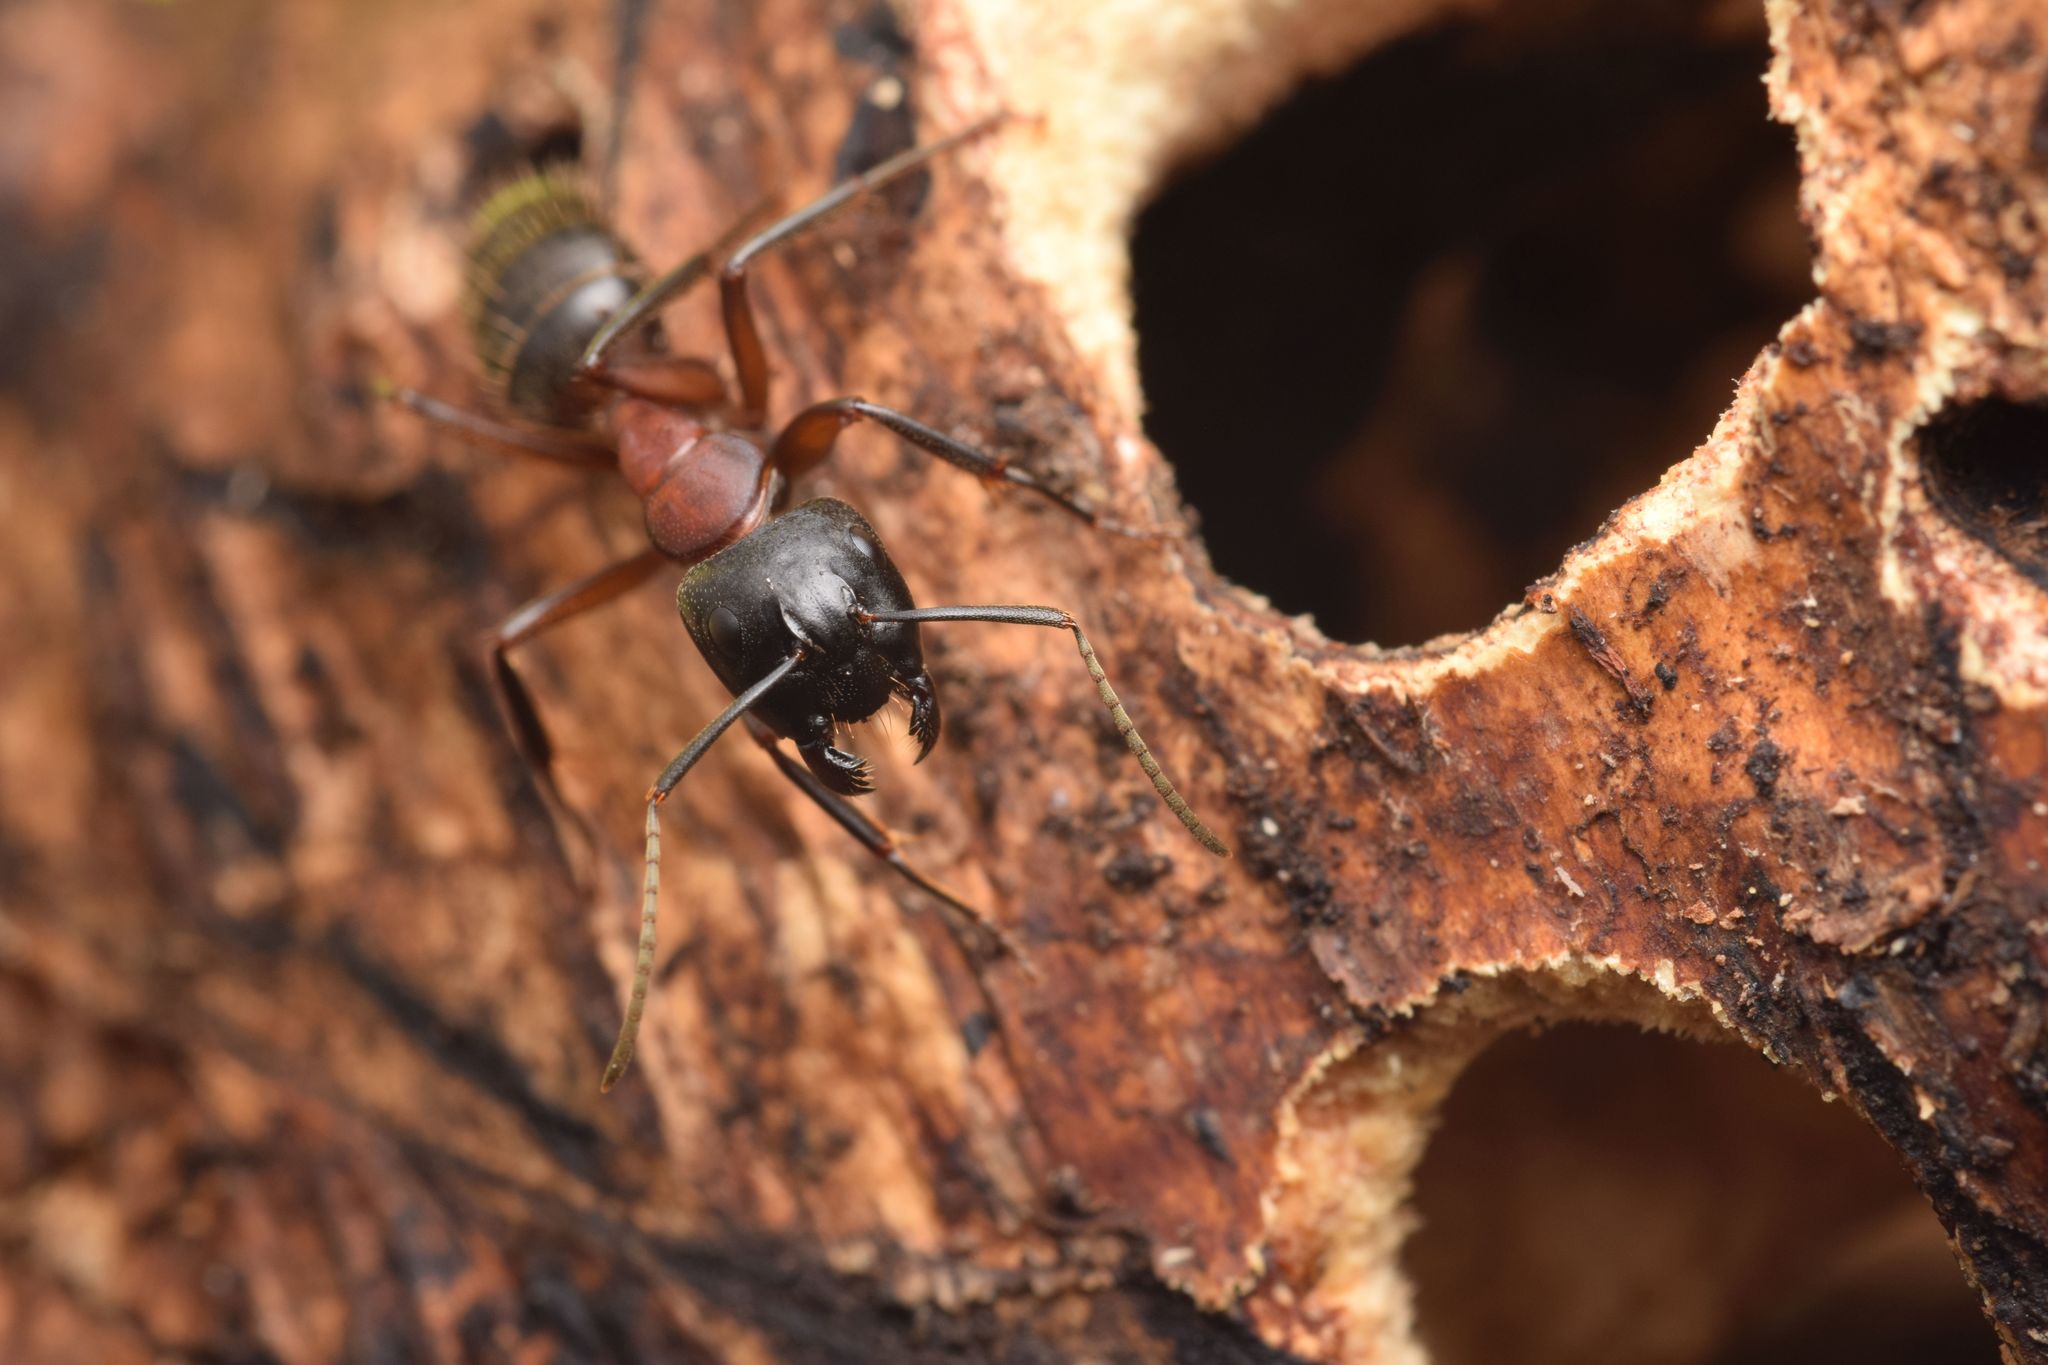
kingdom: Animalia
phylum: Arthropoda
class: Insecta
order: Hymenoptera
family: Formicidae
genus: Camponotus
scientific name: Camponotus ligniperdus
